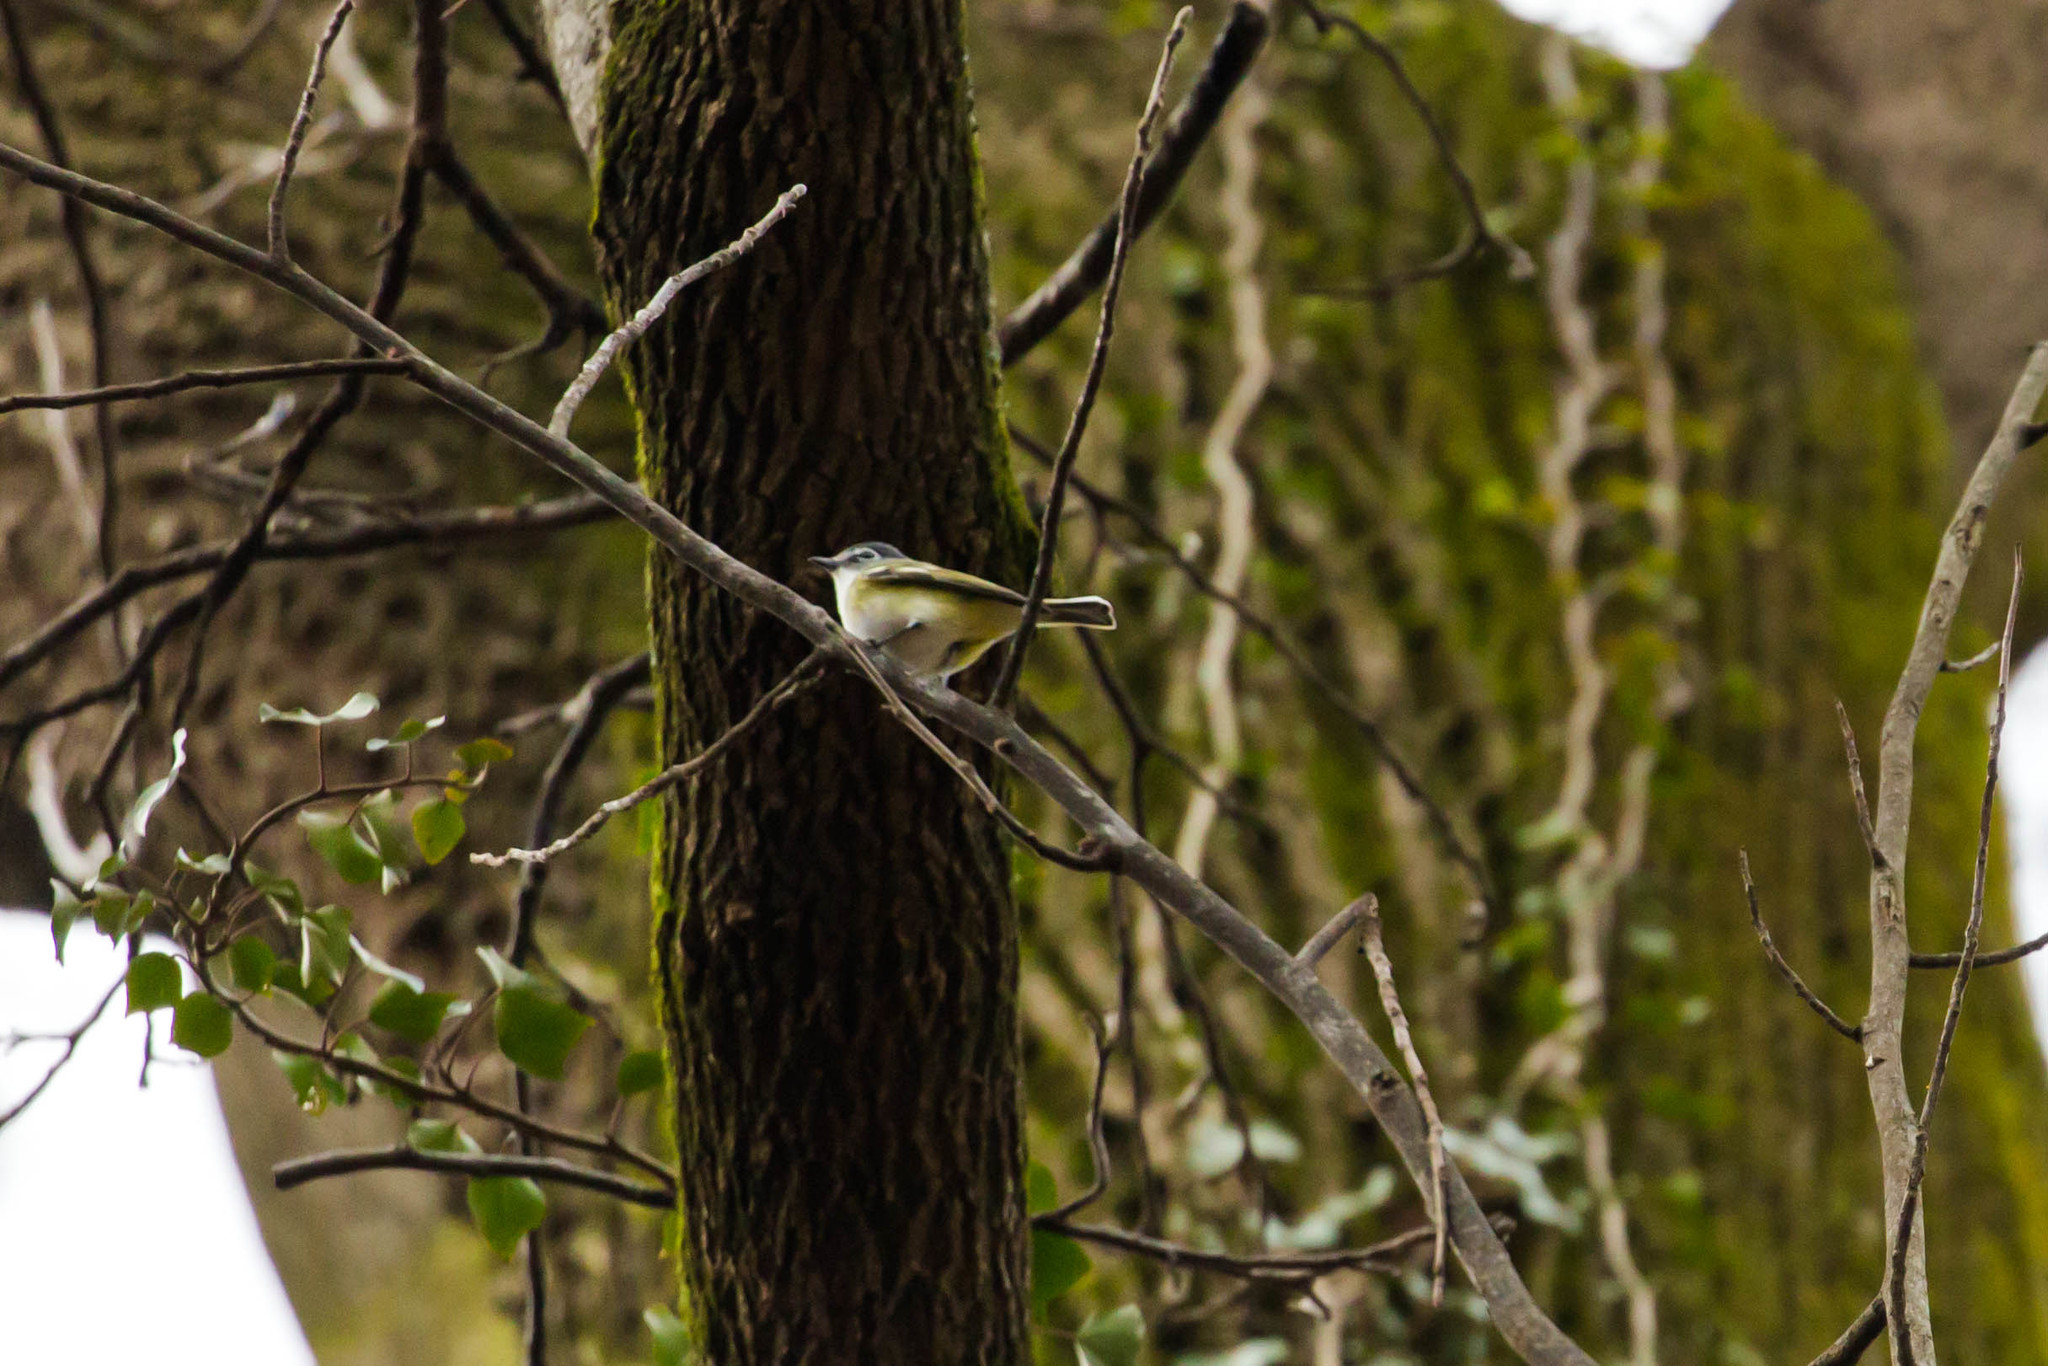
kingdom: Animalia
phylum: Chordata
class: Aves
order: Passeriformes
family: Vireonidae
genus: Vireo
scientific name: Vireo solitarius
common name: Blue-headed vireo
